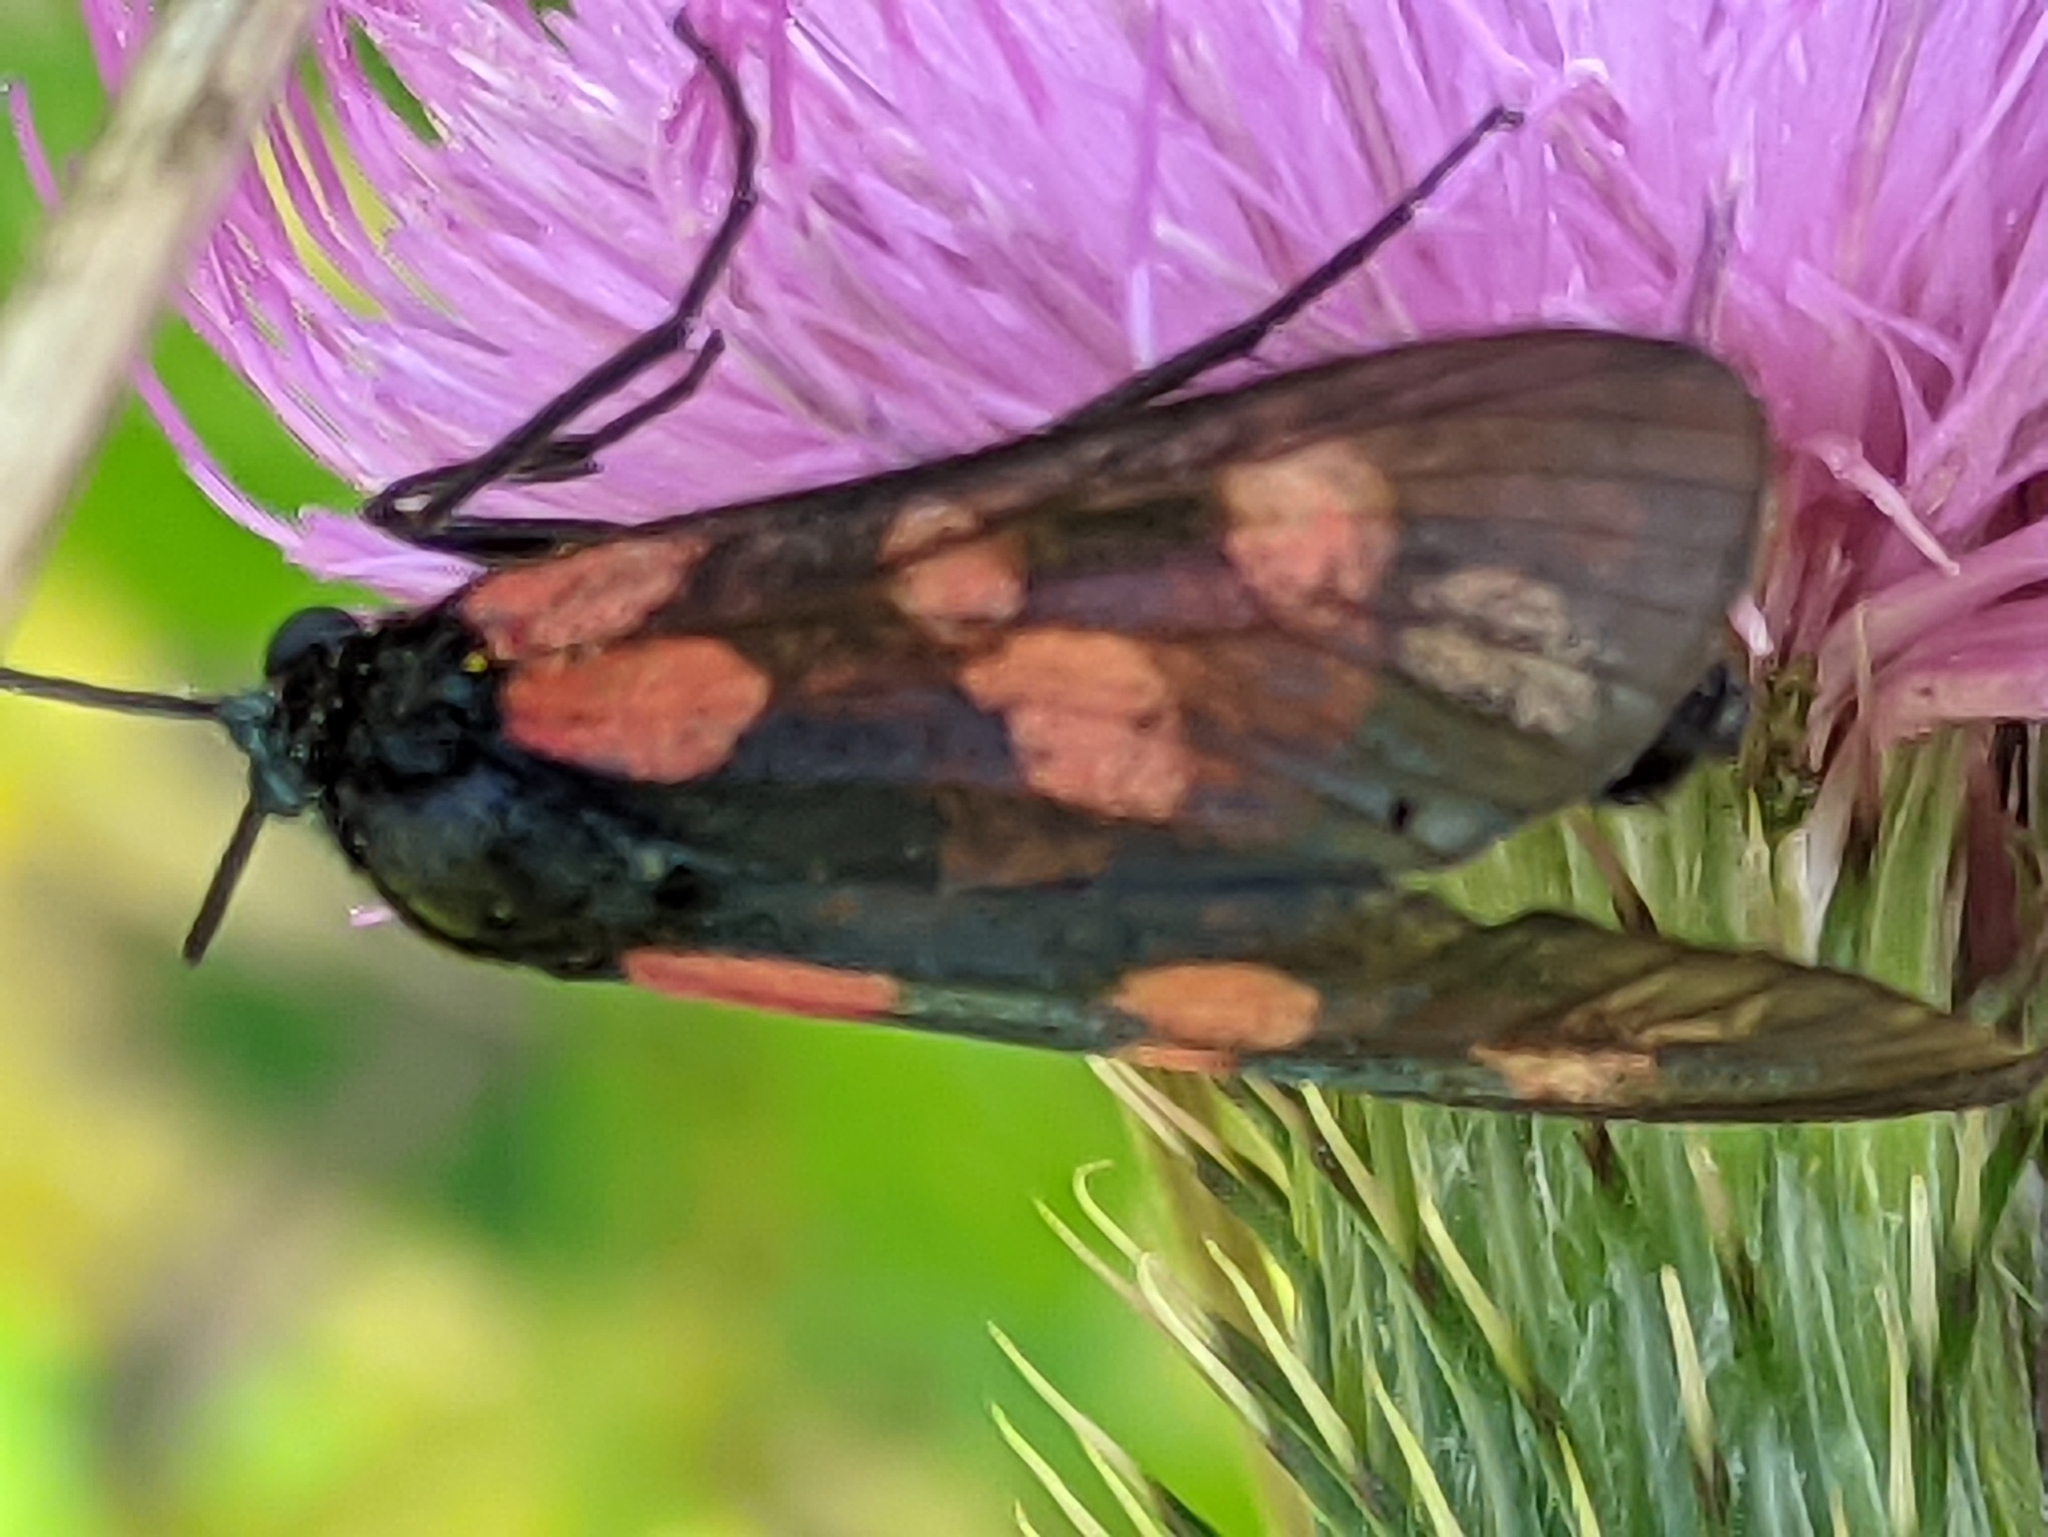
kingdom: Animalia
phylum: Arthropoda
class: Insecta
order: Lepidoptera
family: Zygaenidae
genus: Zygaena
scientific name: Zygaena filipendulae
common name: Six-spot burnet
